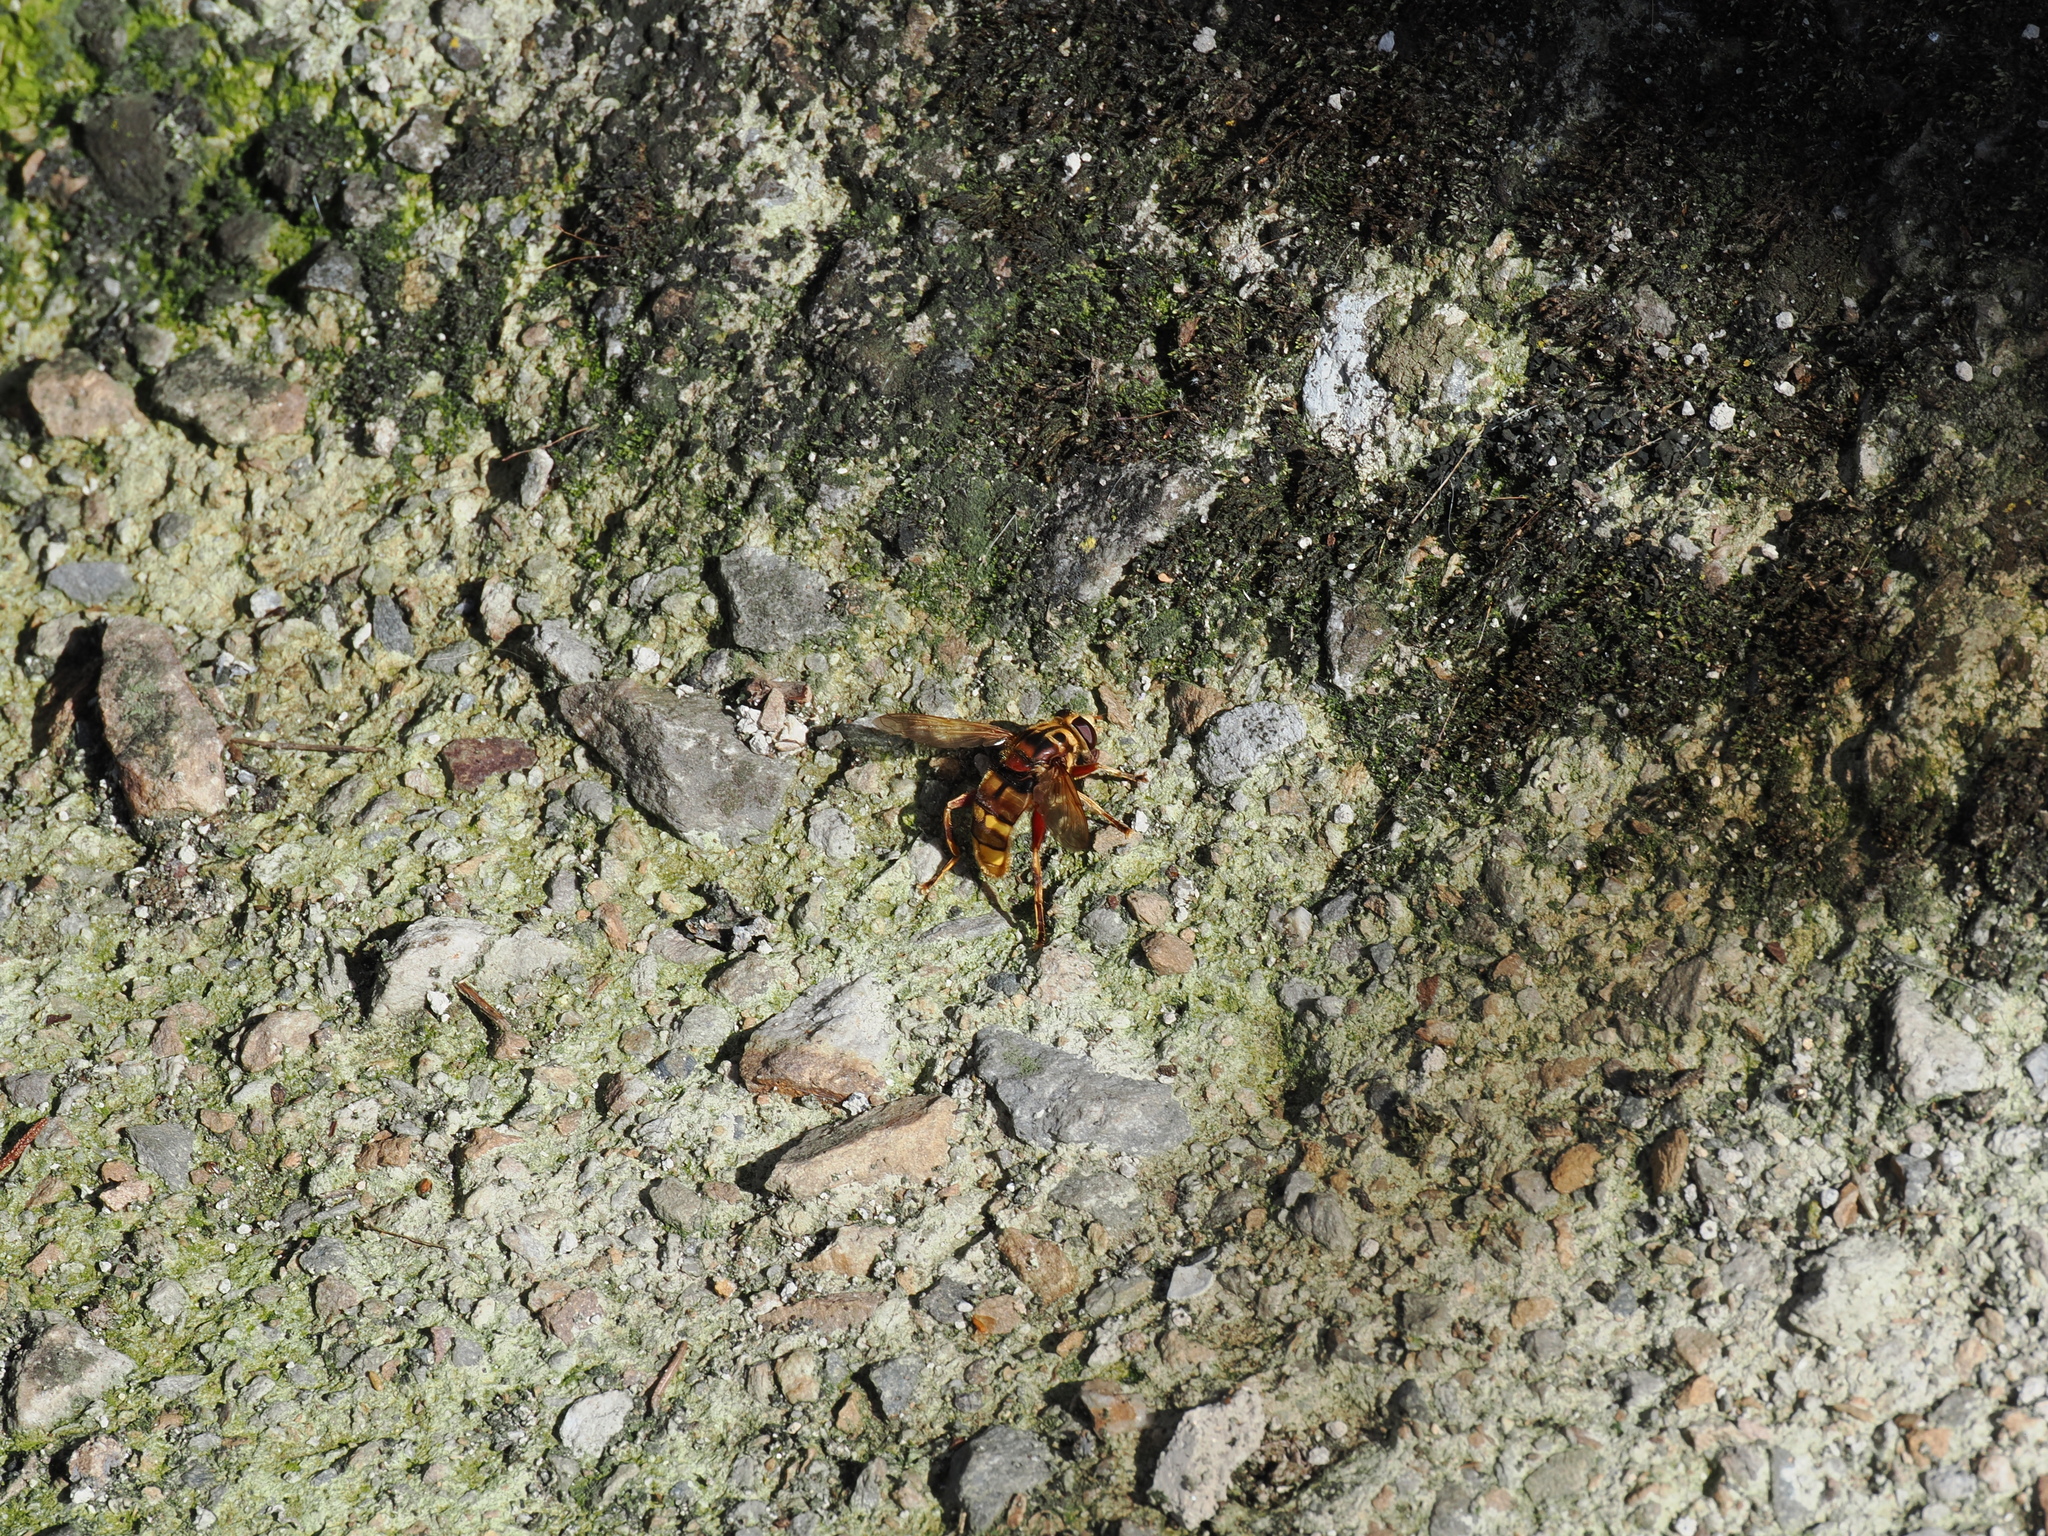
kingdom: Animalia
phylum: Arthropoda
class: Insecta
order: Diptera
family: Syrphidae
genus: Milesia
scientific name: Milesia crabroniformis
